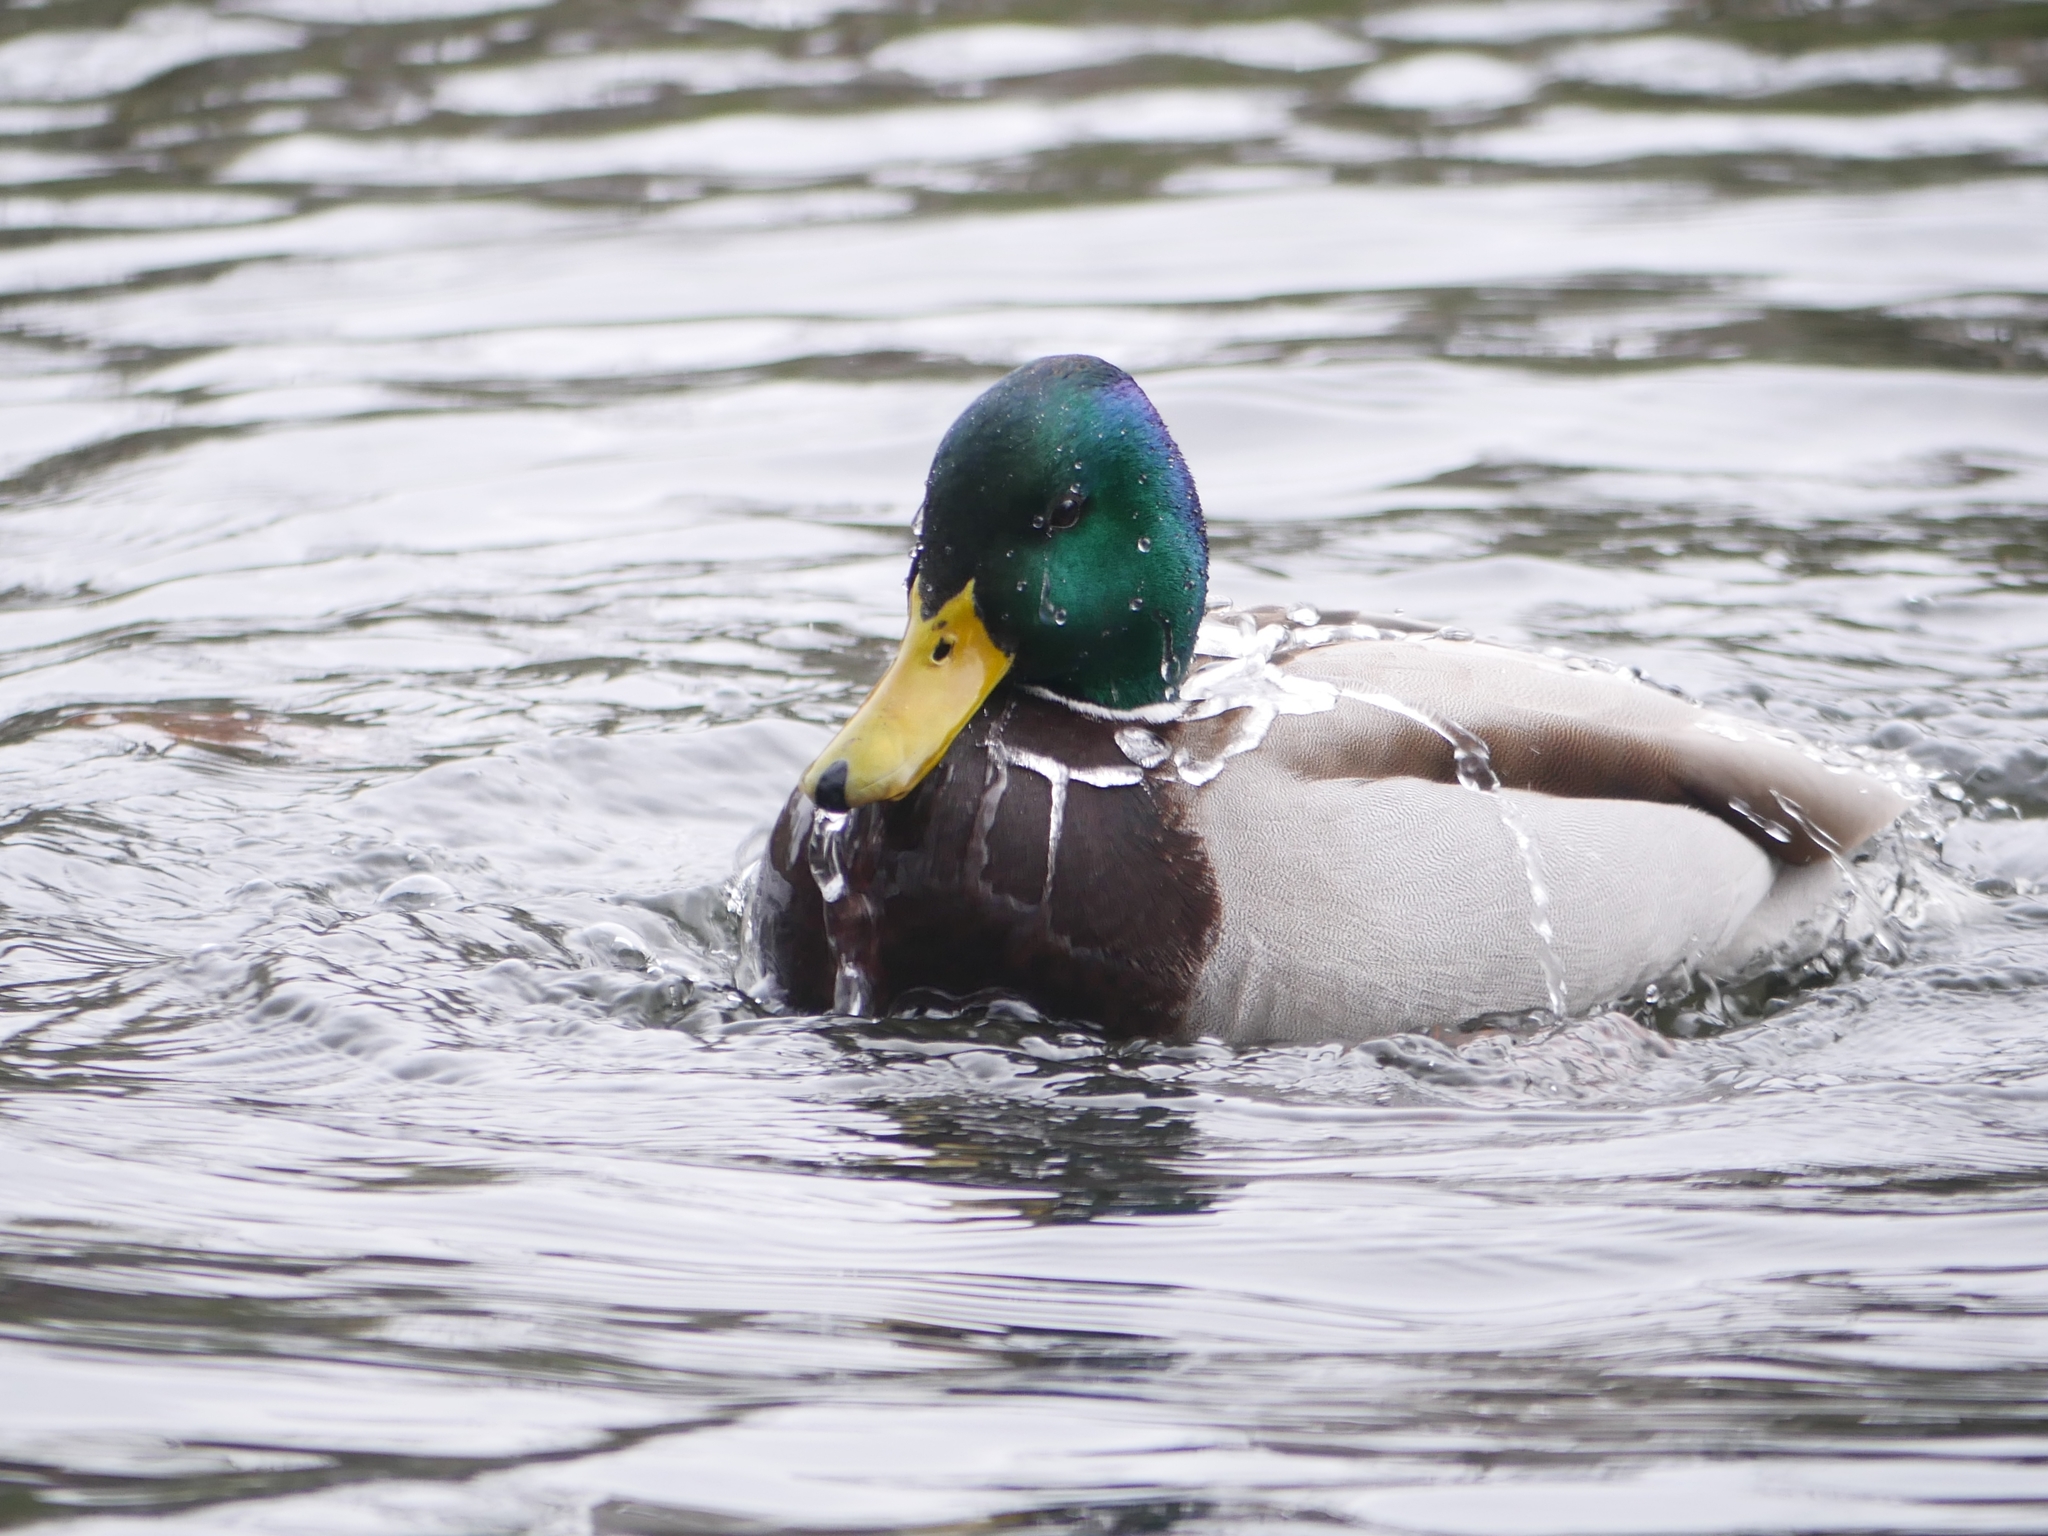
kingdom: Animalia
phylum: Chordata
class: Aves
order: Anseriformes
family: Anatidae
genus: Anas
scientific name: Anas platyrhynchos
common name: Mallard
